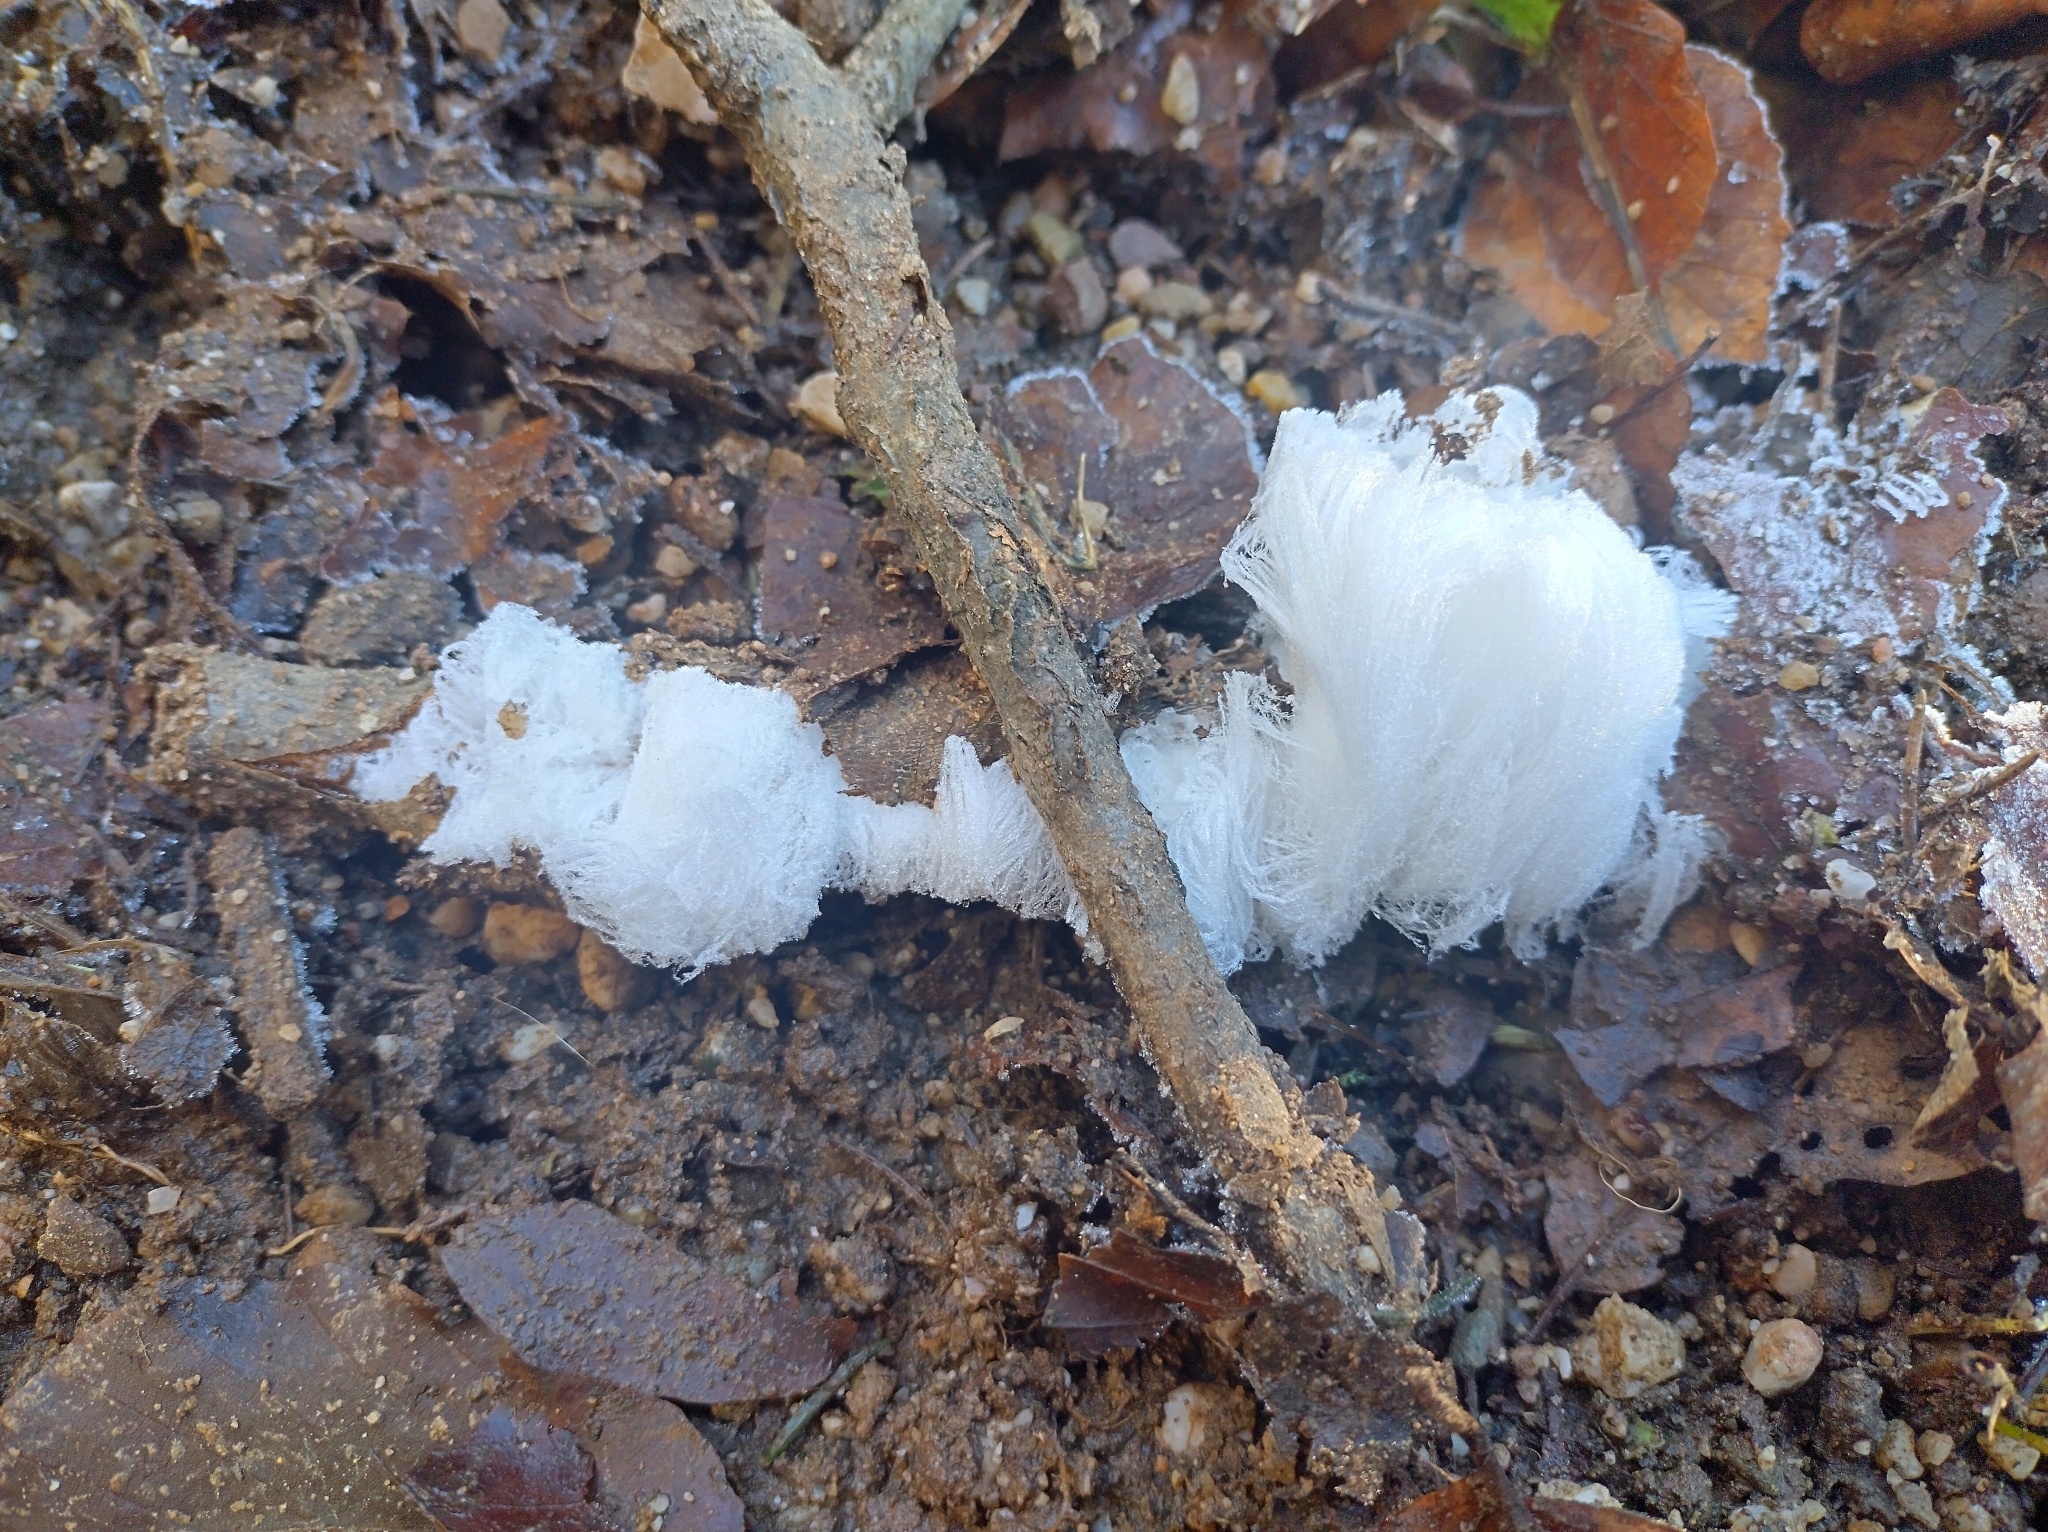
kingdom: Fungi
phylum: Basidiomycota
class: Agaricomycetes
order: Auriculariales
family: Auriculariaceae
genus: Exidiopsis
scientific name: Exidiopsis effusa
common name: Hair ice crust
